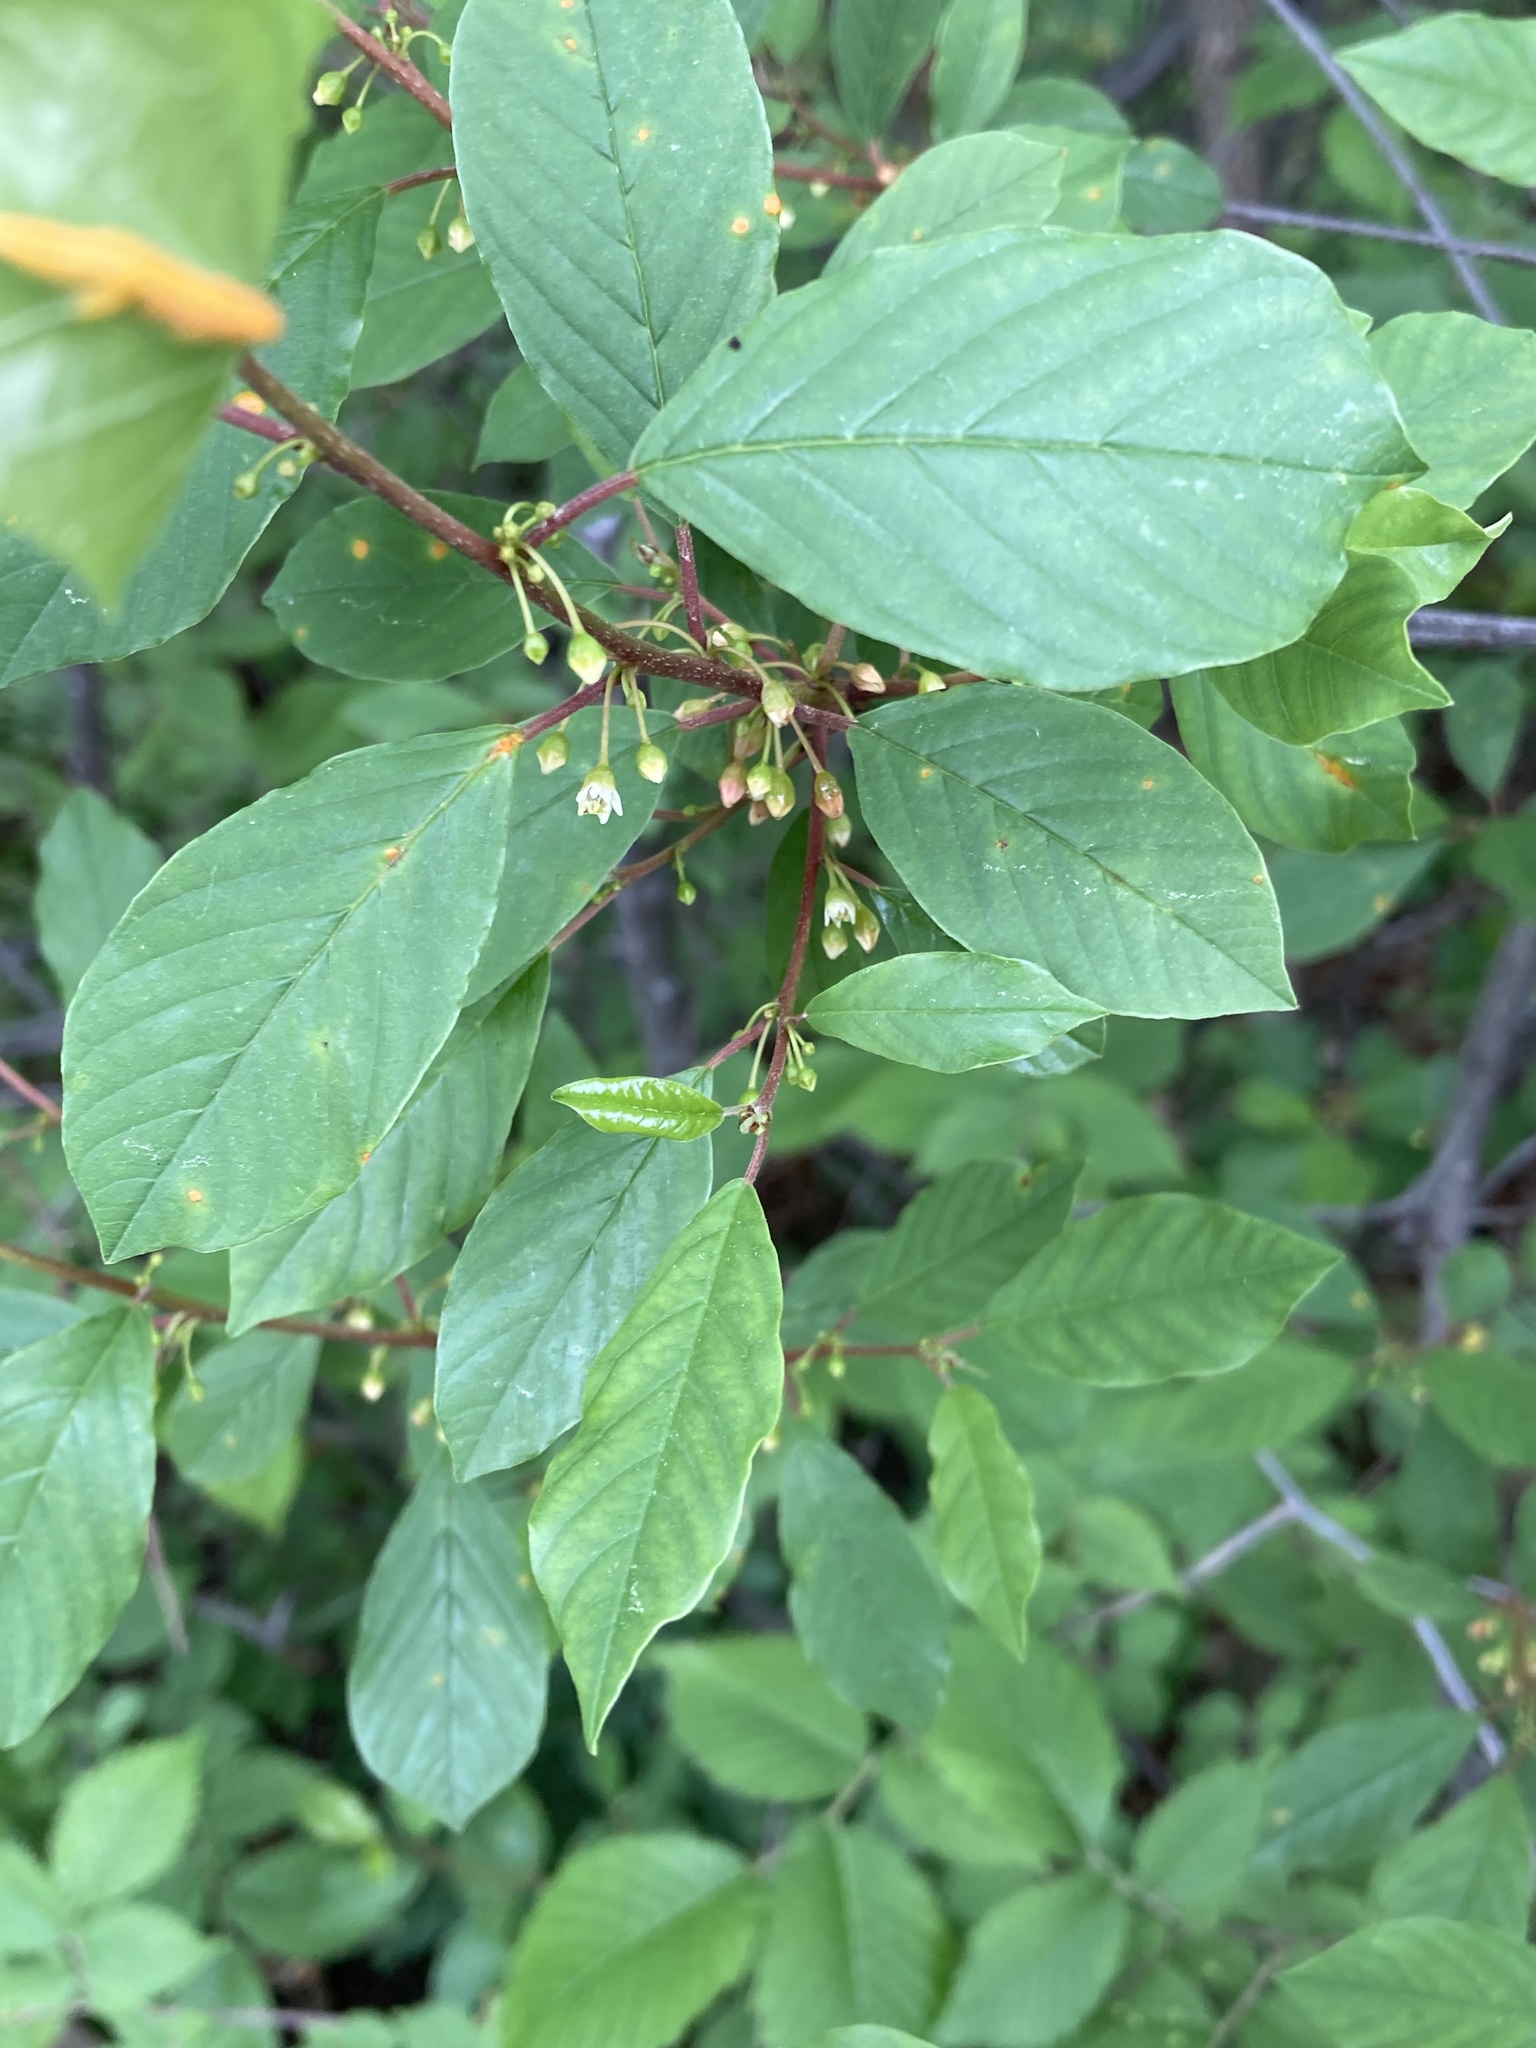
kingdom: Plantae
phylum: Tracheophyta
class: Magnoliopsida
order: Rosales
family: Rhamnaceae
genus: Frangula
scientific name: Frangula alnus
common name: Alder buckthorn
